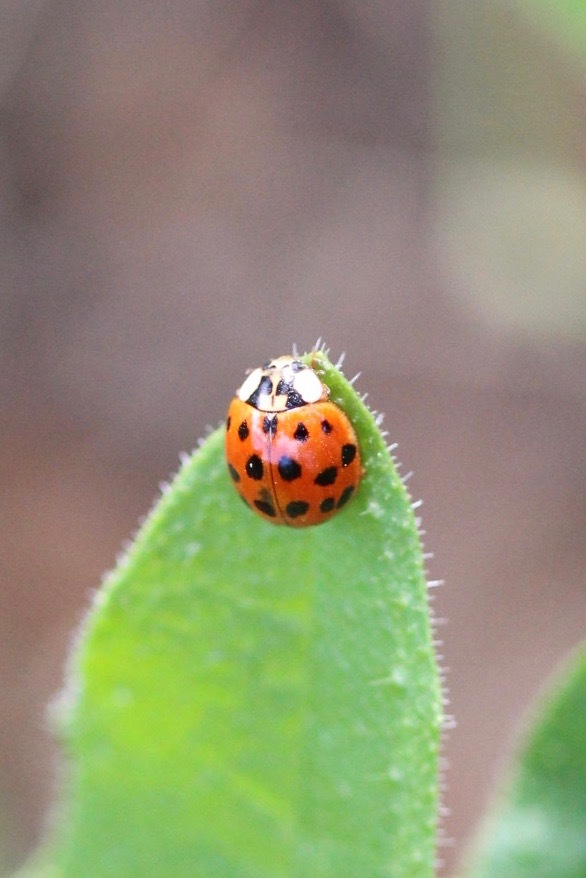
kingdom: Animalia
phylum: Arthropoda
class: Insecta
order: Coleoptera
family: Coccinellidae
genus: Harmonia
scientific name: Harmonia axyridis
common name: Harlequin ladybird
